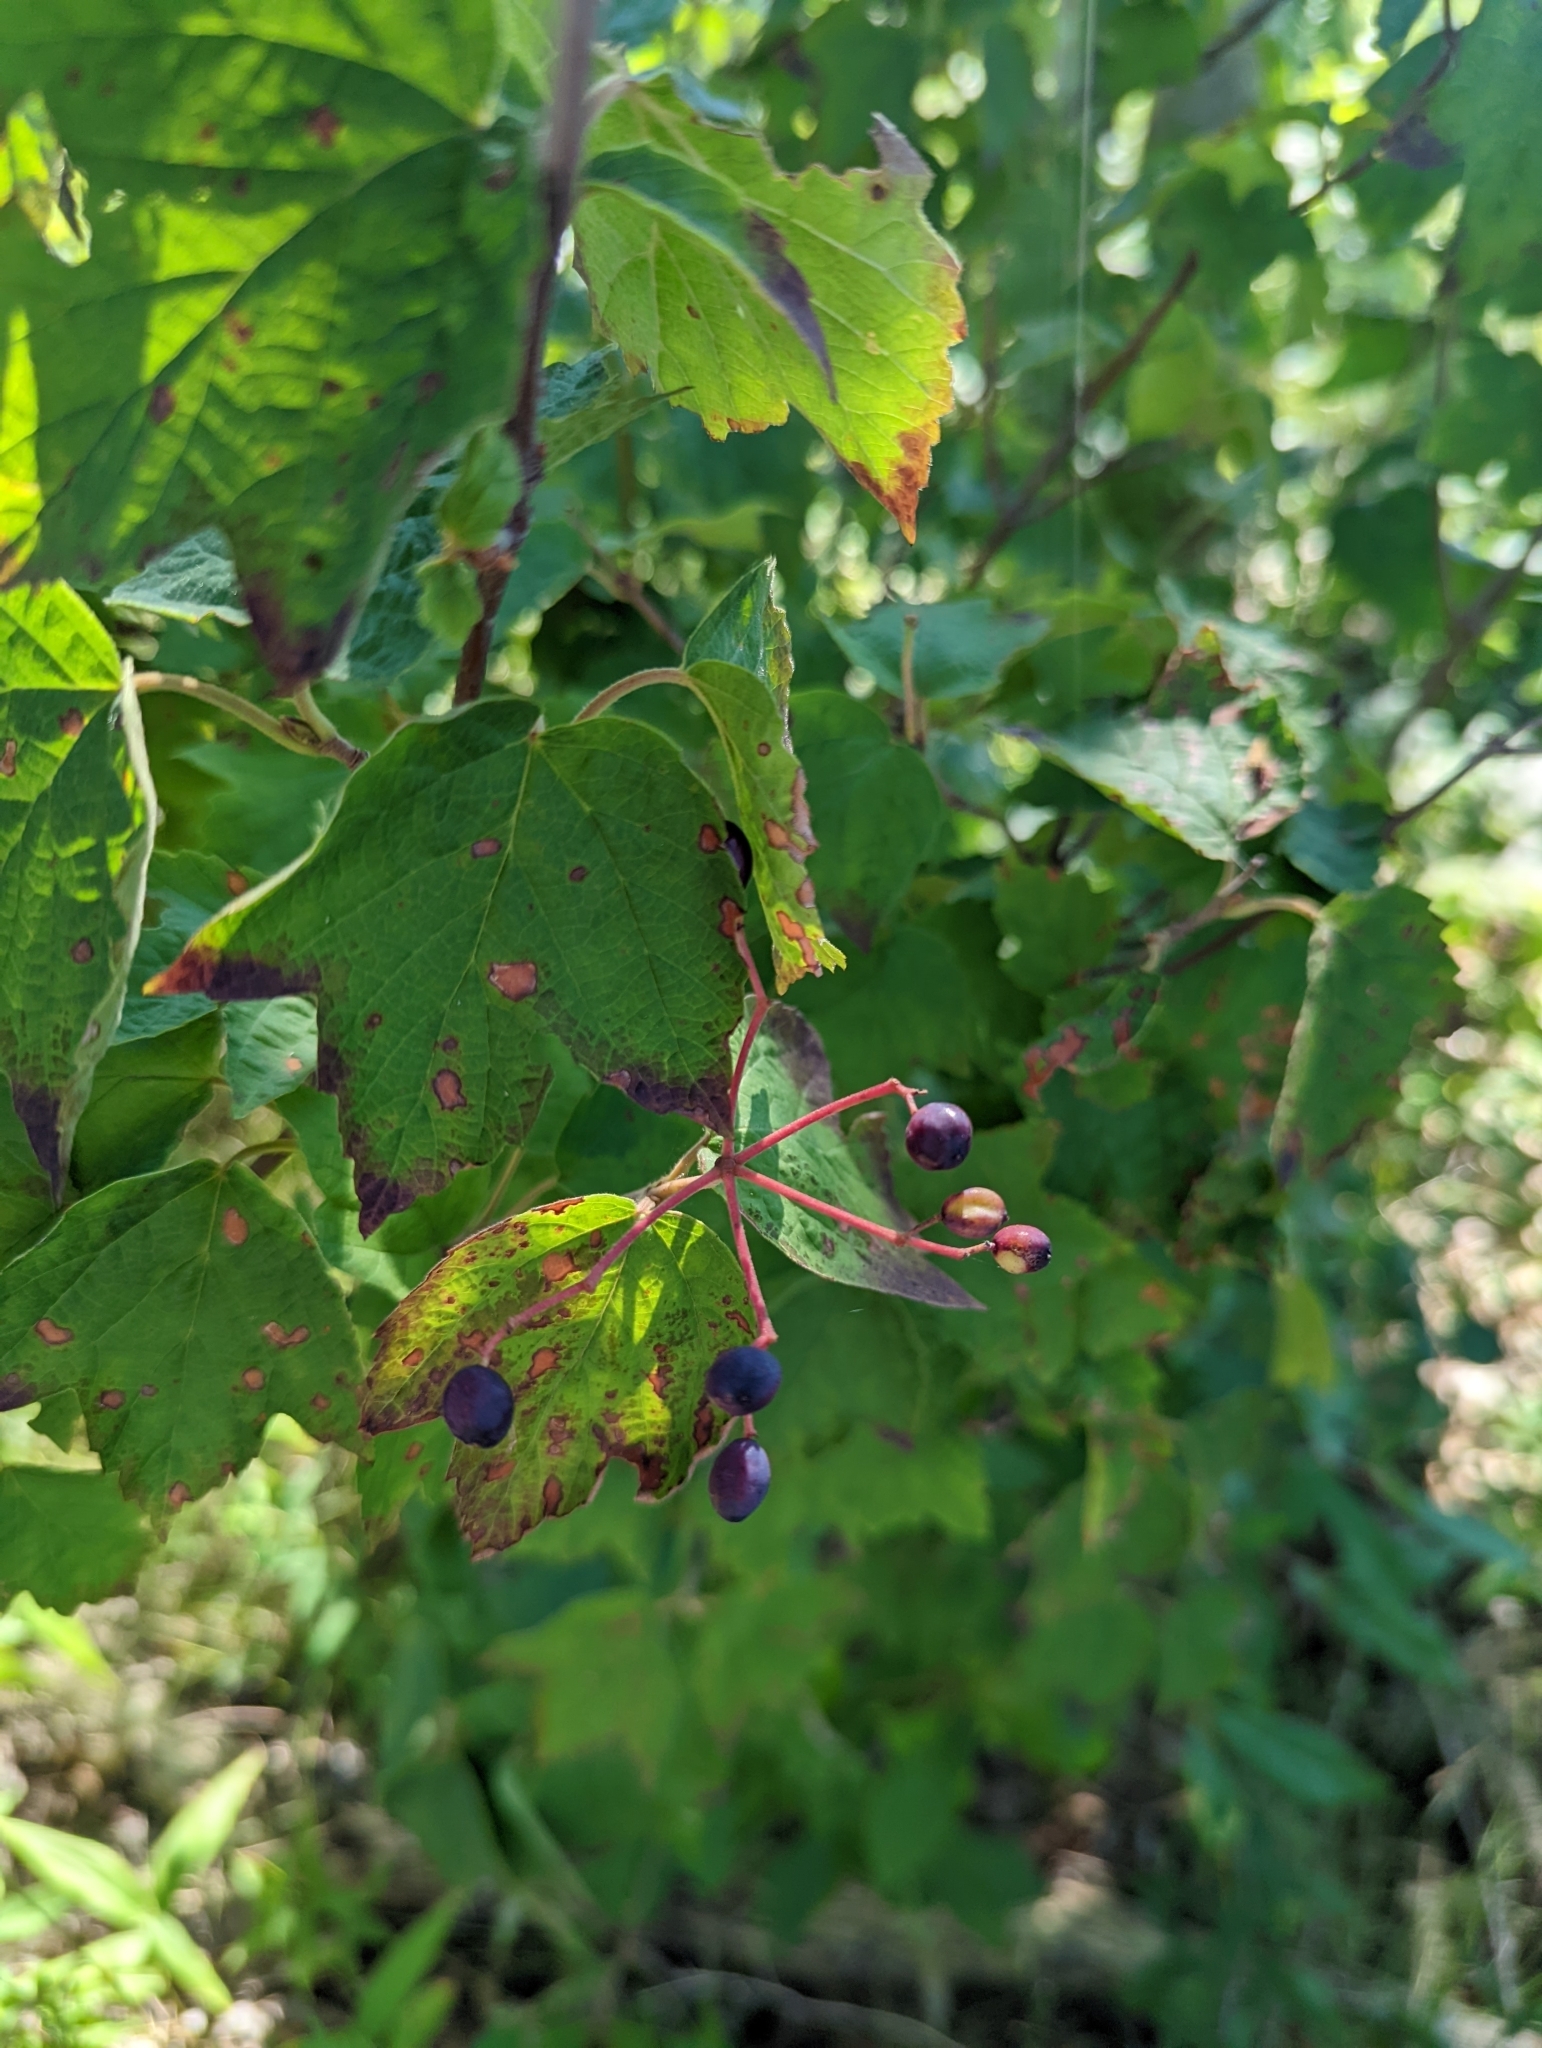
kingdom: Plantae
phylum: Tracheophyta
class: Magnoliopsida
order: Dipsacales
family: Viburnaceae
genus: Viburnum
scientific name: Viburnum acerifolium
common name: Dockmackie
